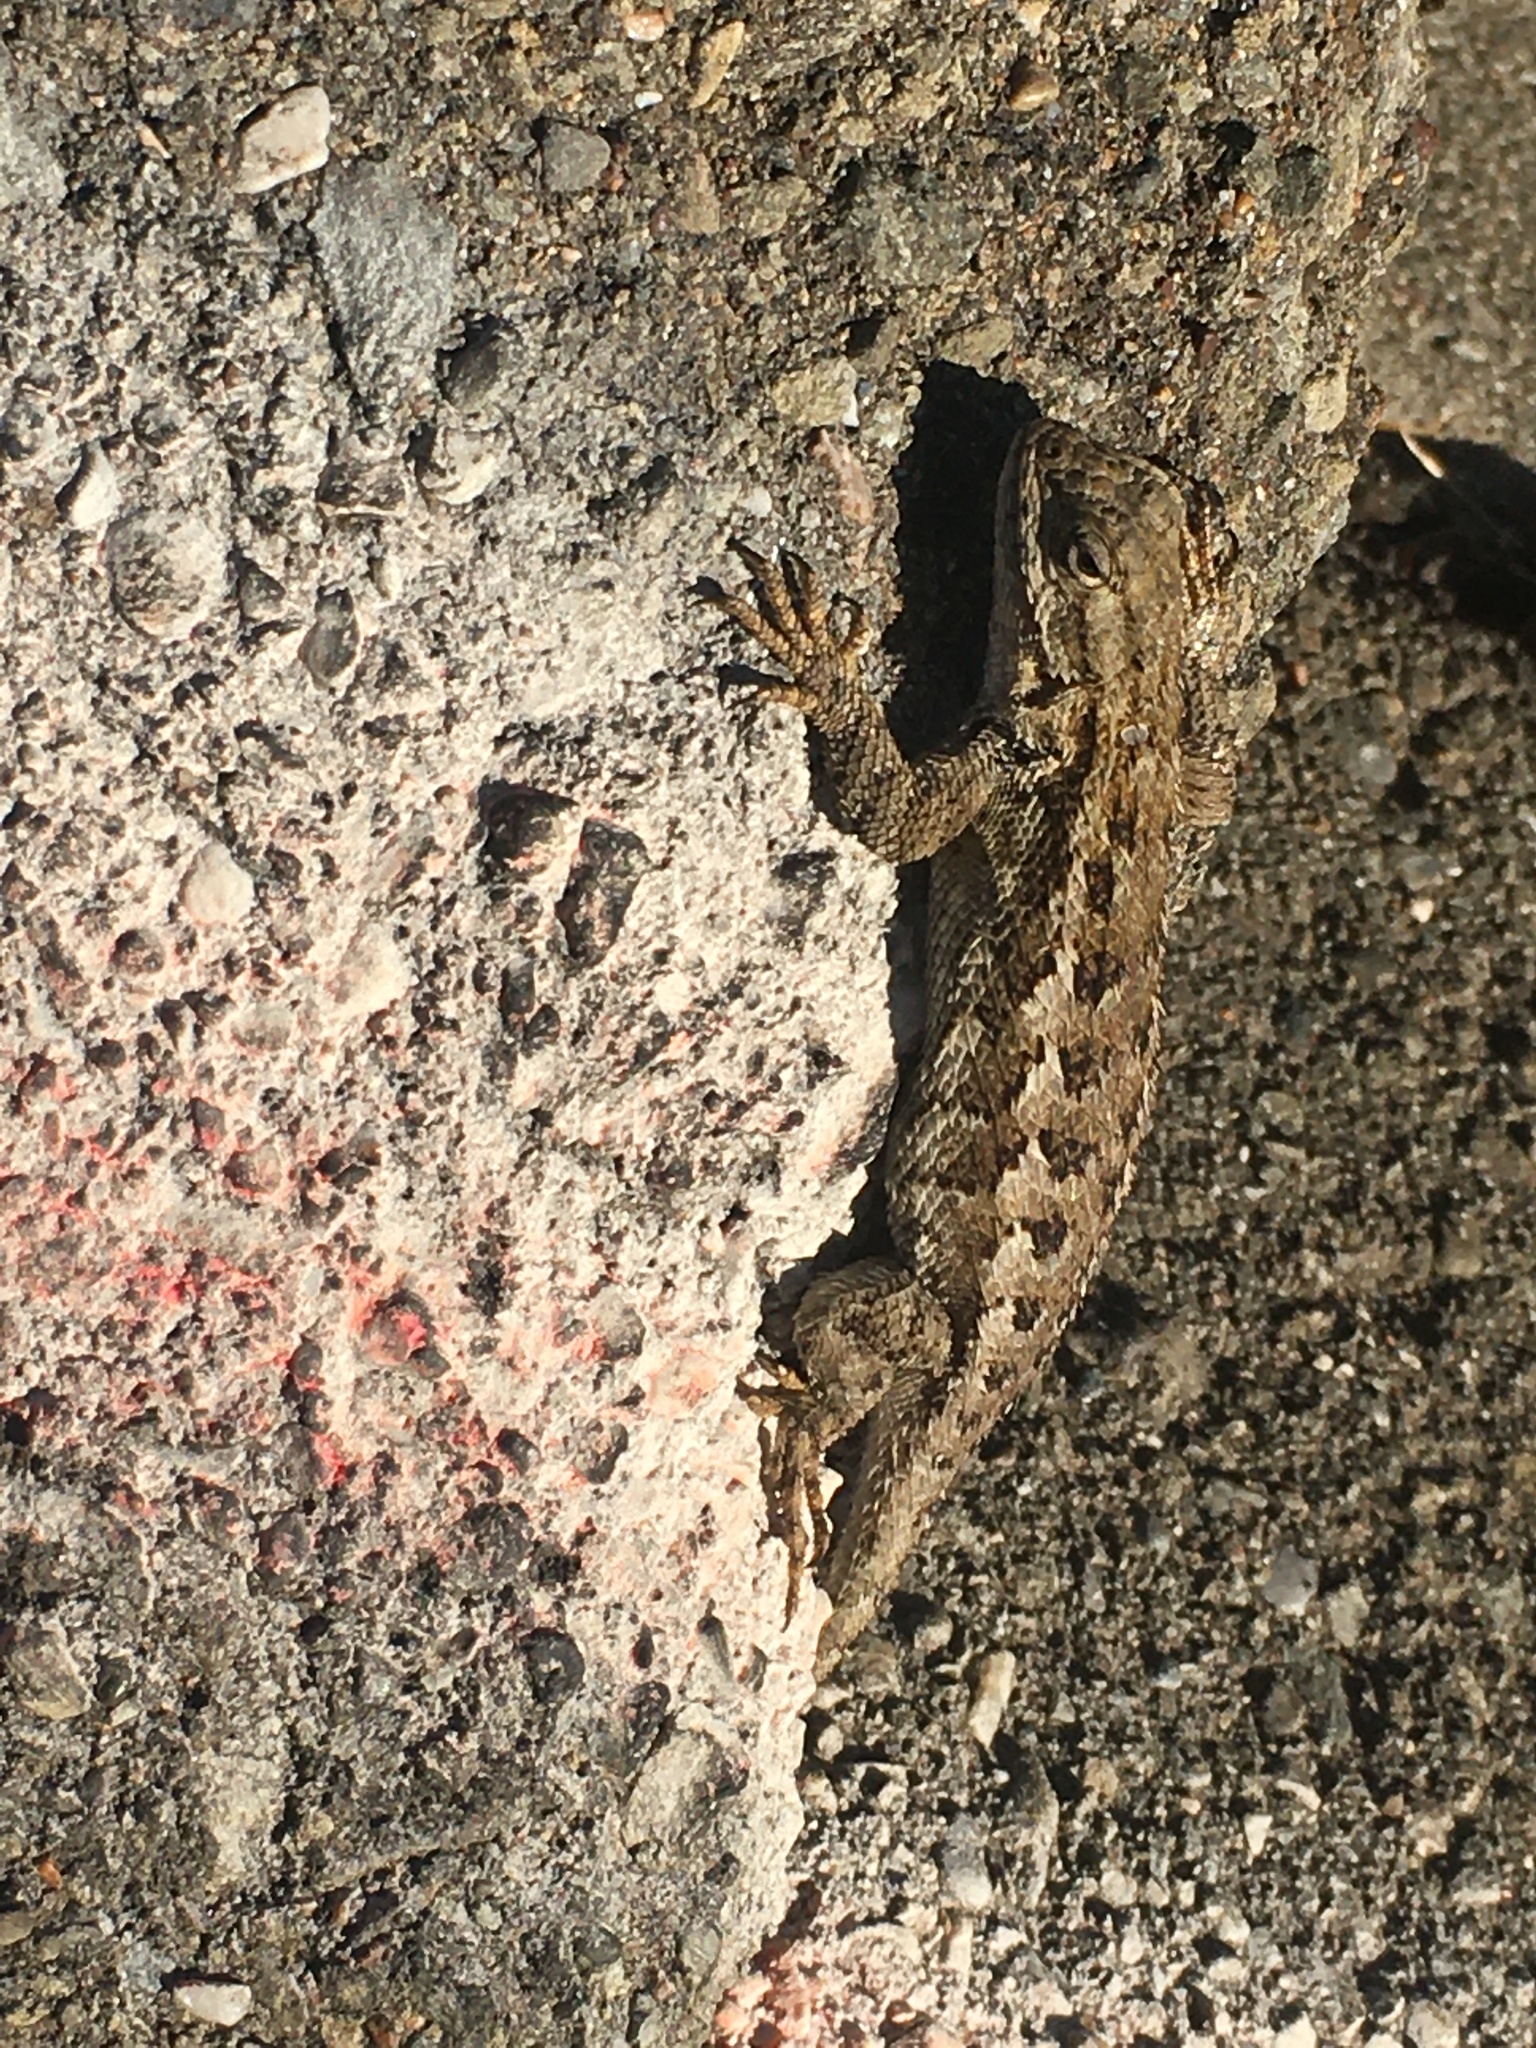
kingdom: Animalia
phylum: Chordata
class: Squamata
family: Phrynosomatidae
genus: Sceloporus
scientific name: Sceloporus occidentalis
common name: Western fence lizard
